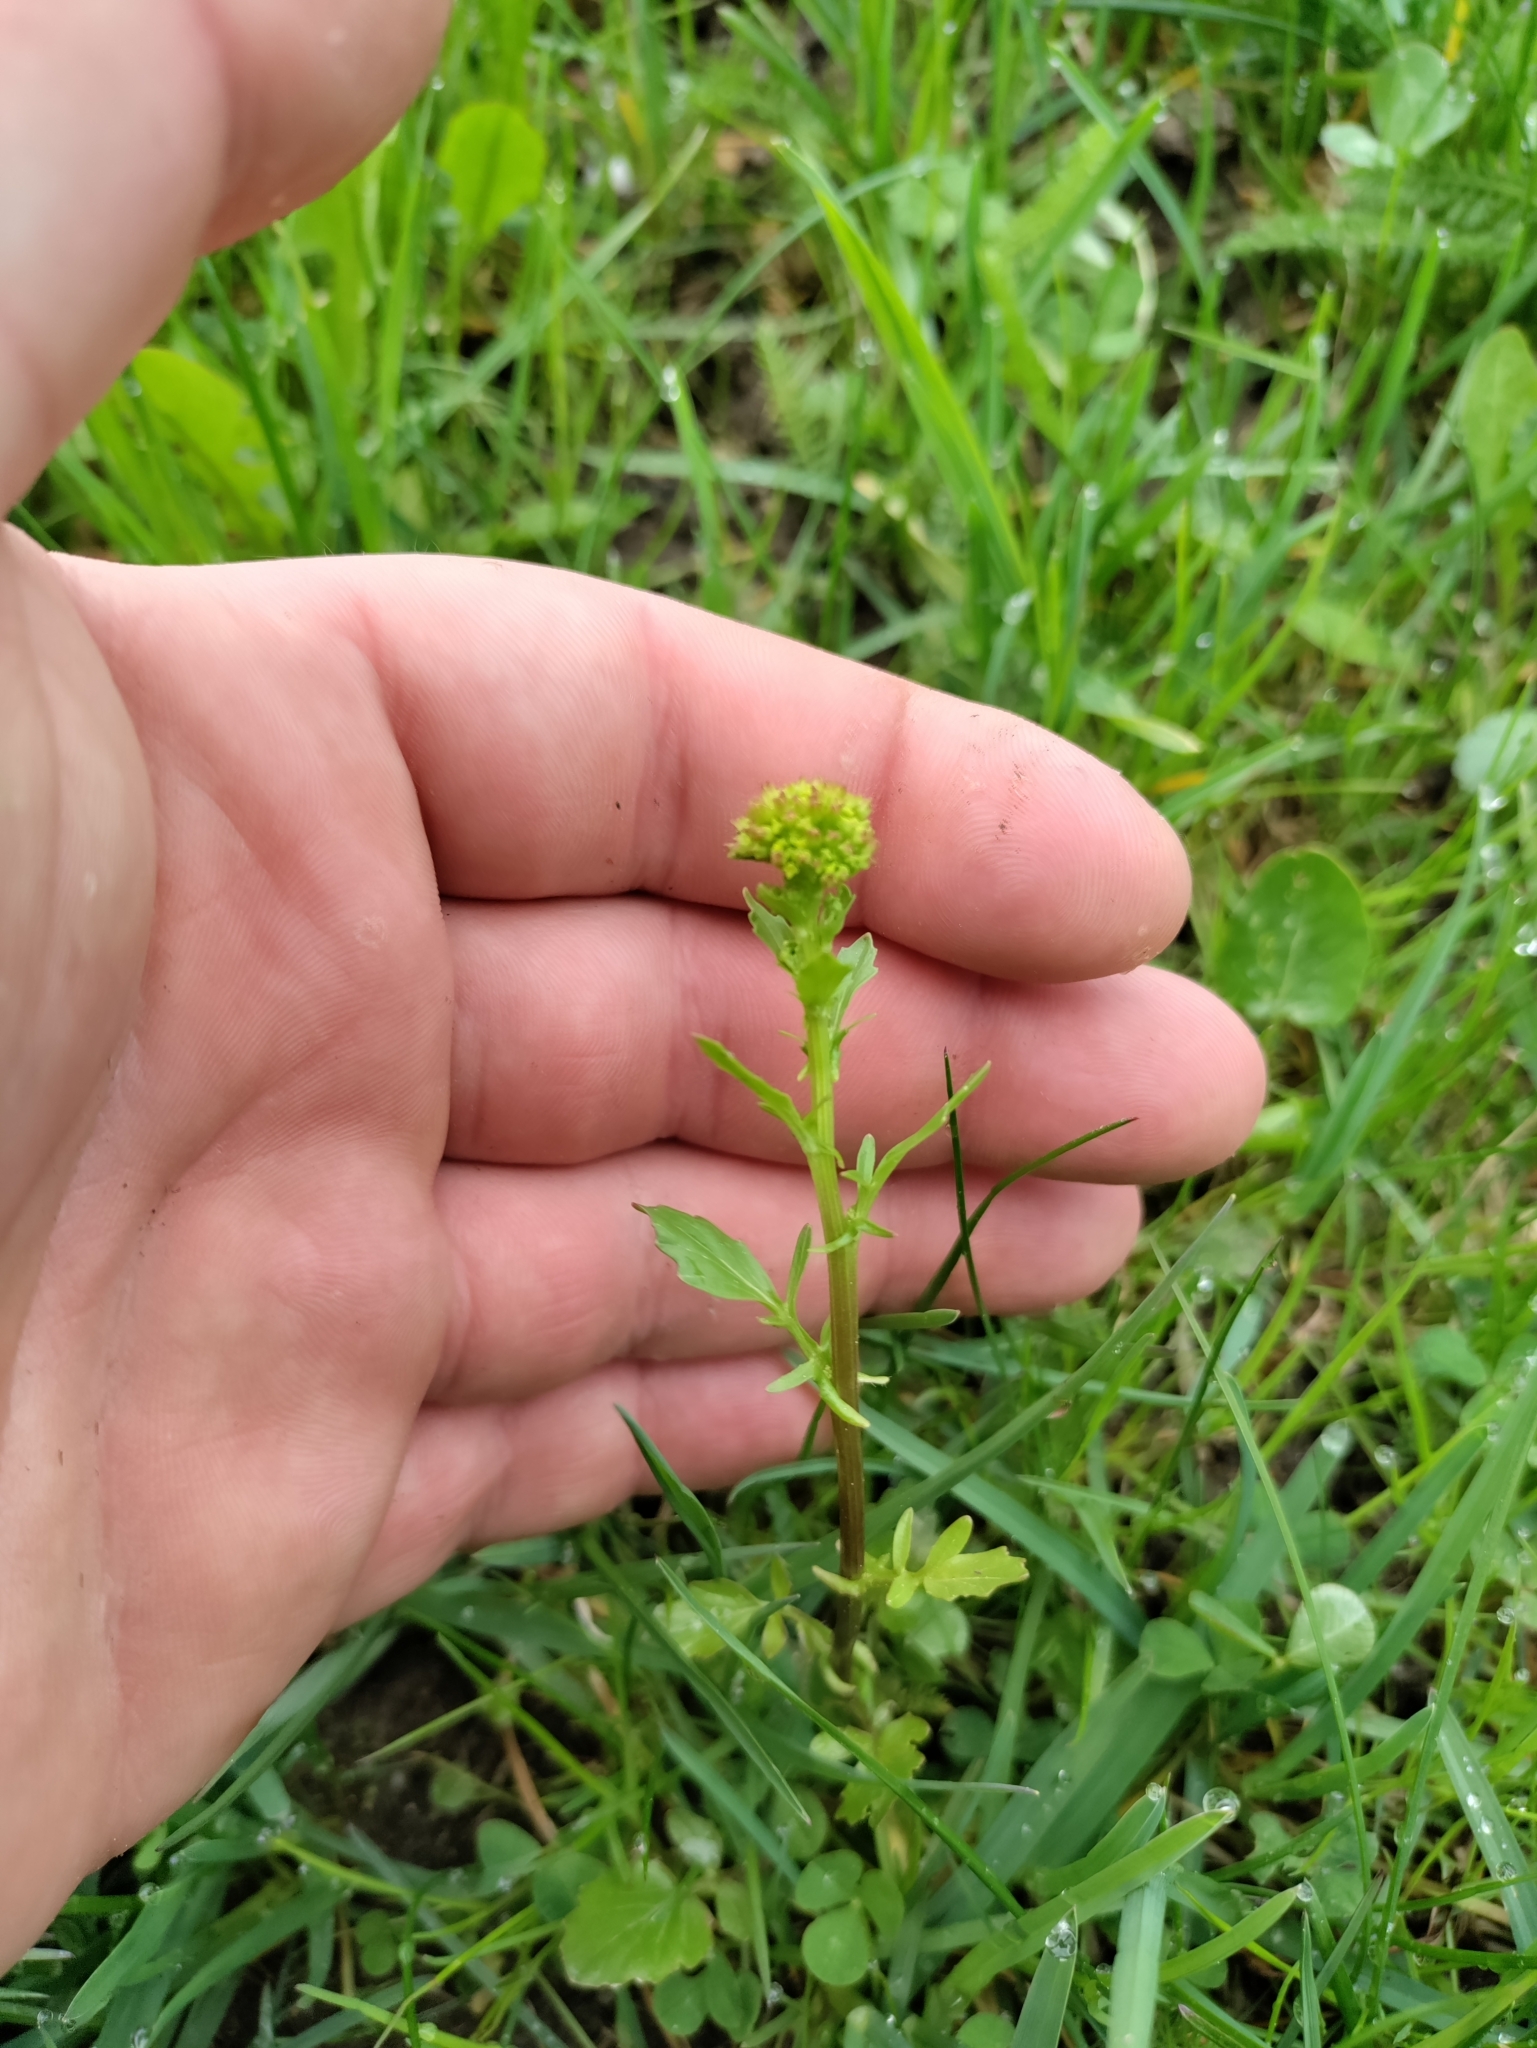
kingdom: Plantae
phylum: Tracheophyta
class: Magnoliopsida
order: Brassicales
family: Brassicaceae
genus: Barbarea
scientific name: Barbarea vulgaris
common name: Cressy-greens
